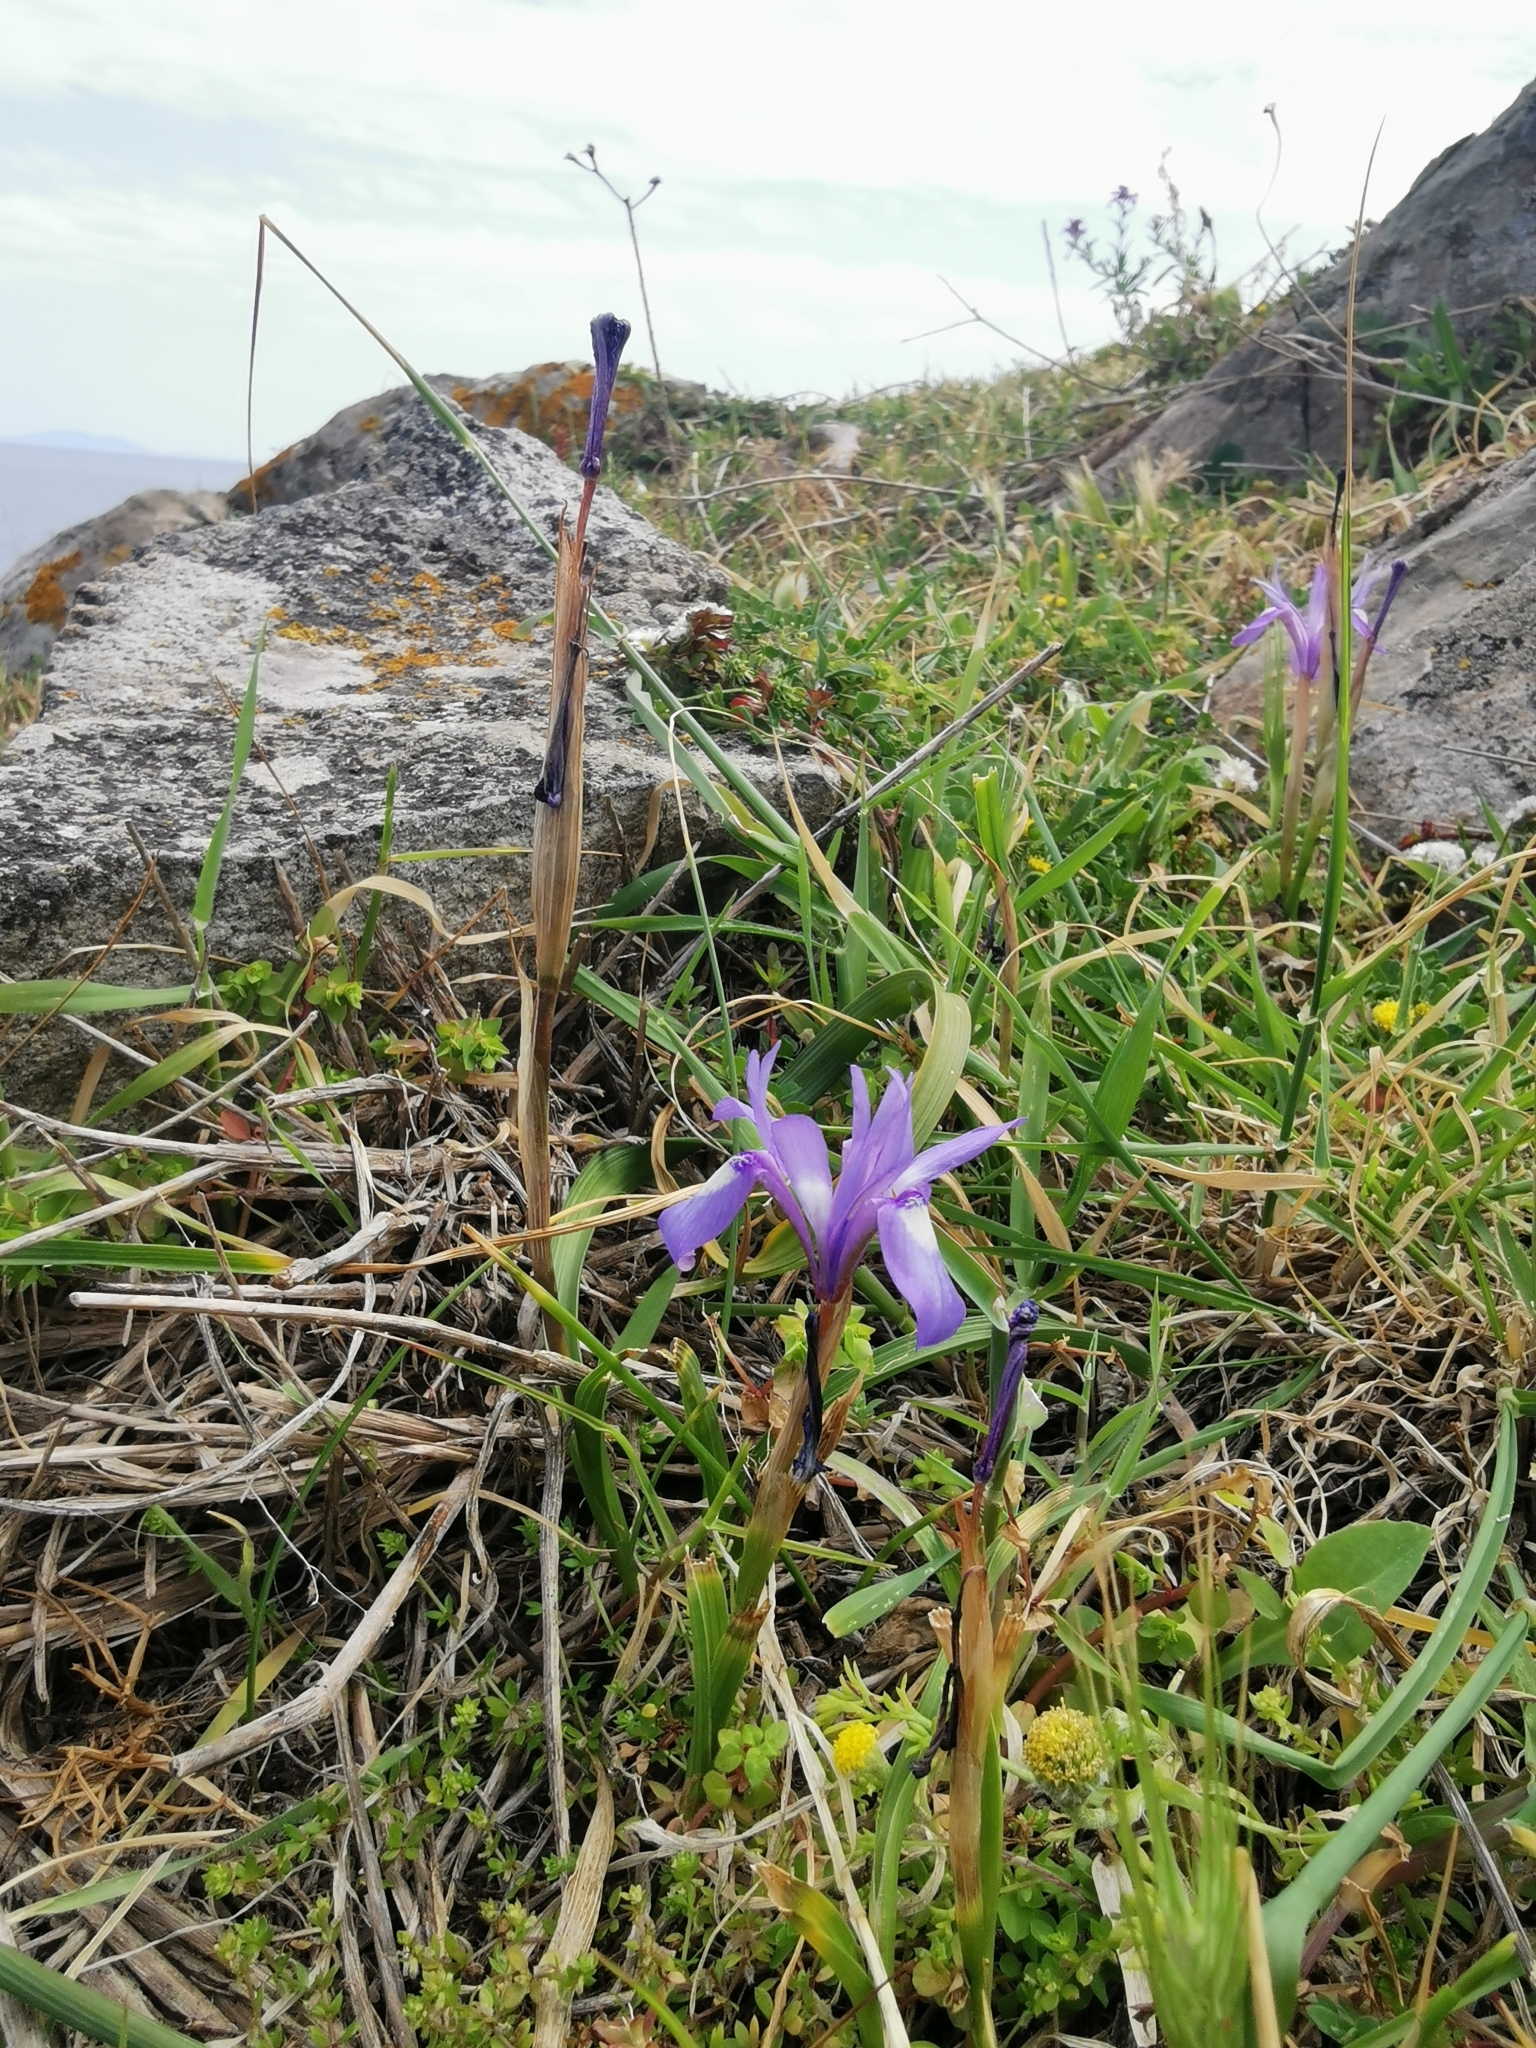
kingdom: Plantae
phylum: Tracheophyta
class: Liliopsida
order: Asparagales
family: Iridaceae
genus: Moraea
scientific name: Moraea sisyrinchium
